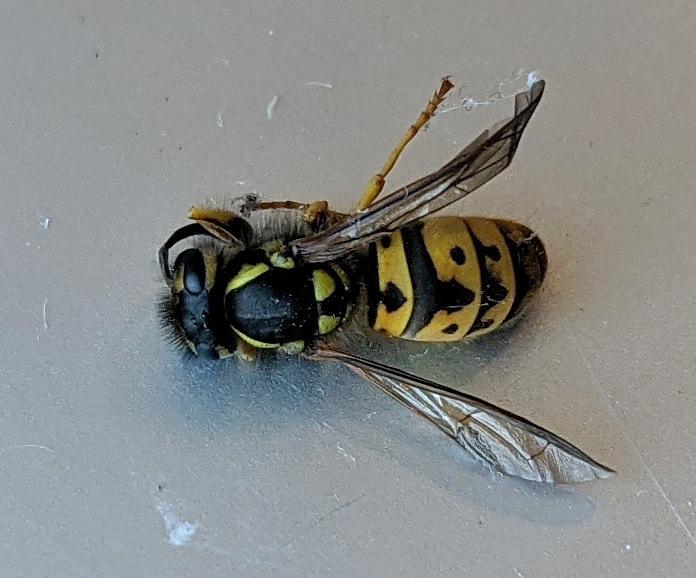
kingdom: Animalia
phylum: Arthropoda
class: Insecta
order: Hymenoptera
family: Vespidae
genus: Vespula
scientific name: Vespula germanica
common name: German wasp
